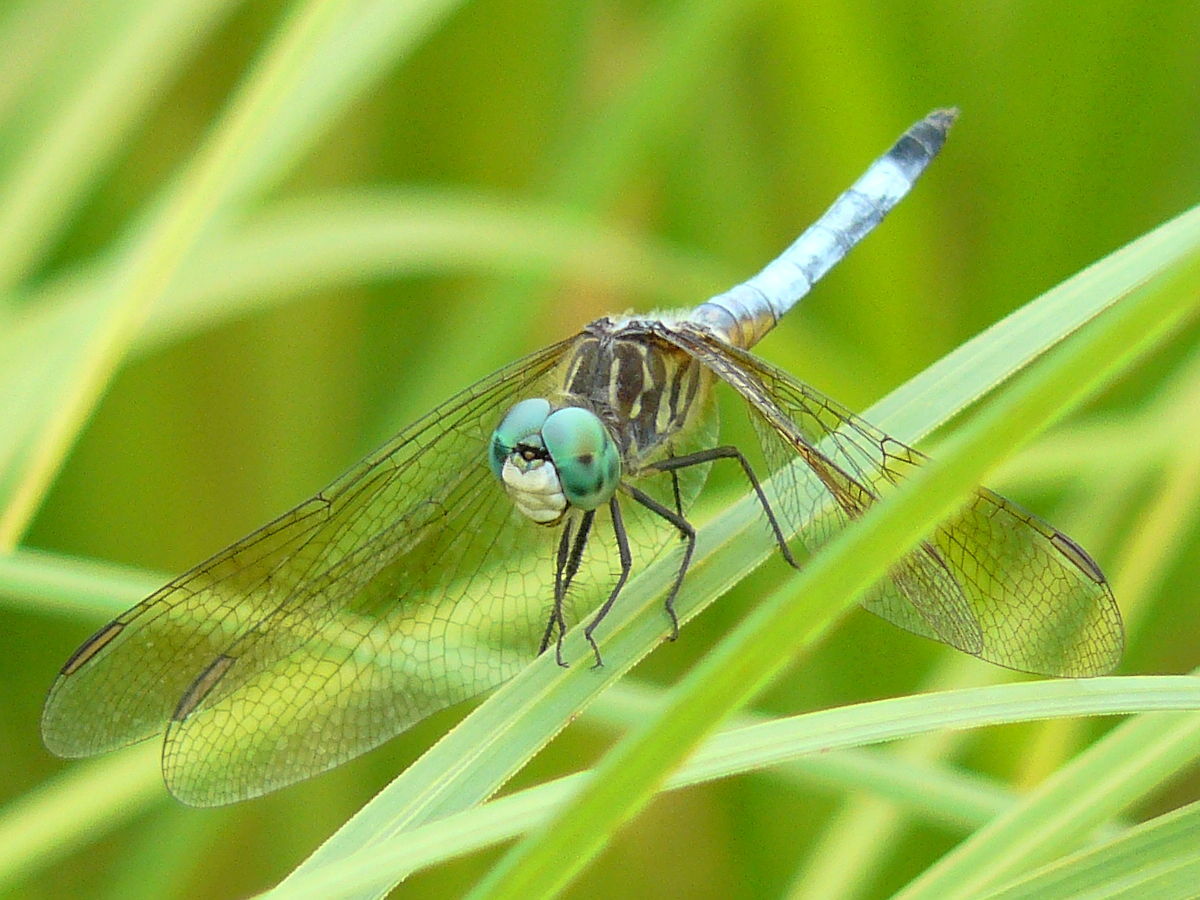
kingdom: Animalia
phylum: Arthropoda
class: Insecta
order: Odonata
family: Libellulidae
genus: Pachydiplax
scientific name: Pachydiplax longipennis
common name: Blue dasher
